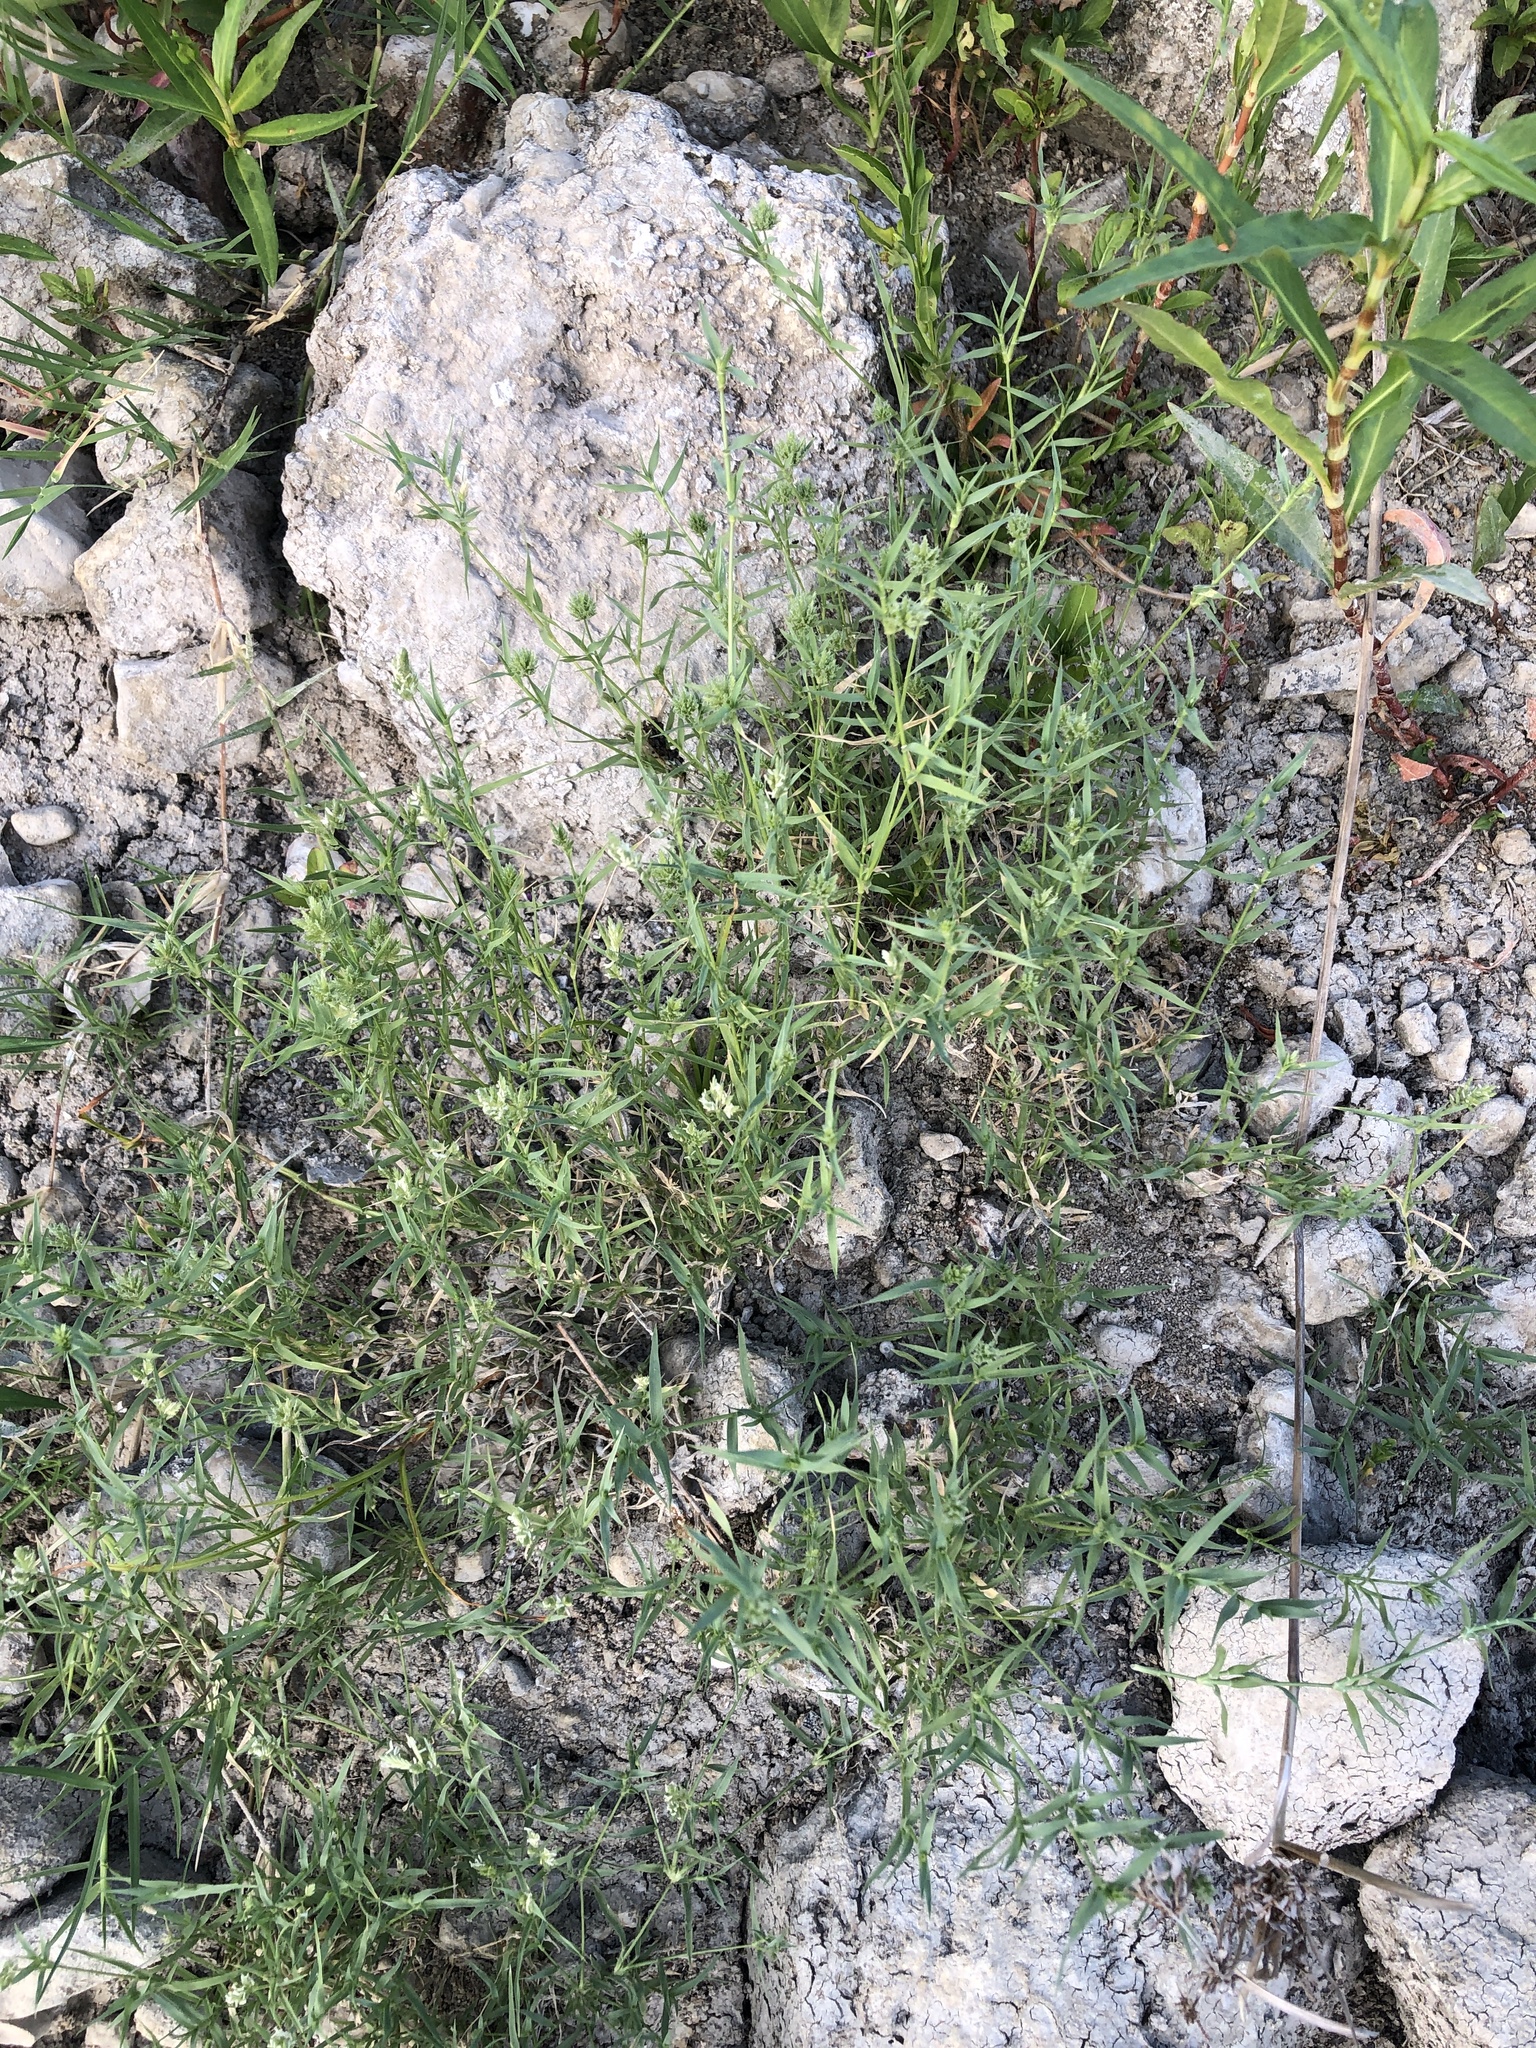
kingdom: Plantae
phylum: Tracheophyta
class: Liliopsida
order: Poales
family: Poaceae
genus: Eragrostis
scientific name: Eragrostis reptans
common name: Creeping love grass
